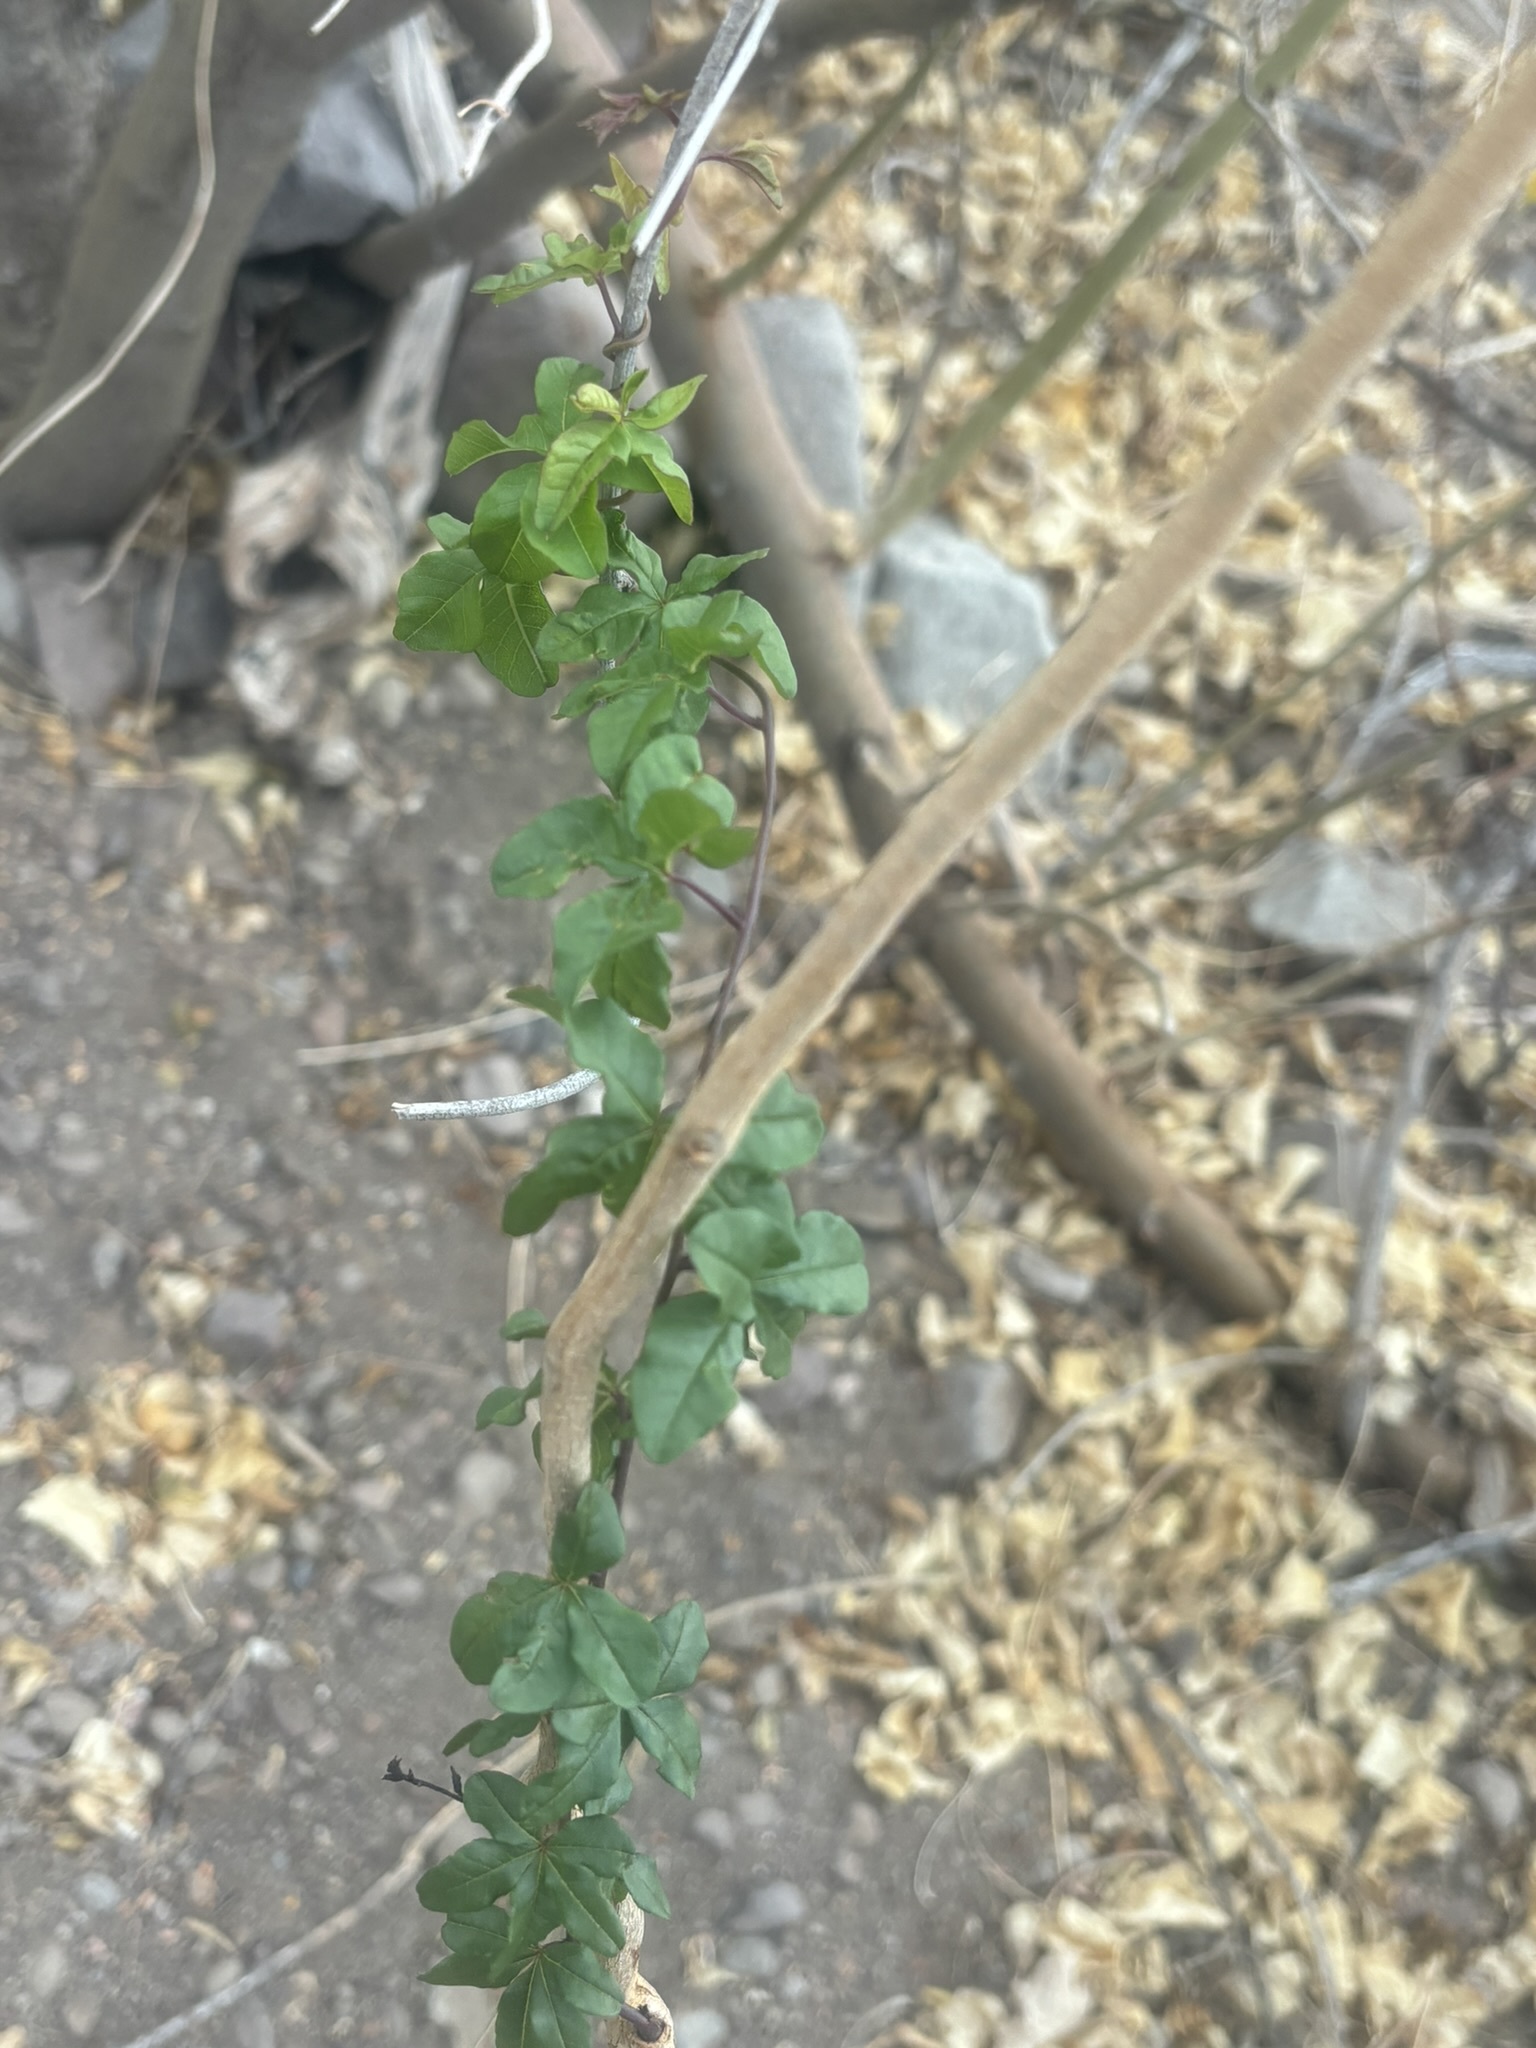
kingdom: Plantae
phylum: Tracheophyta
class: Magnoliopsida
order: Solanales
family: Convolvulaceae
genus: Distimake
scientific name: Distimake aureus
